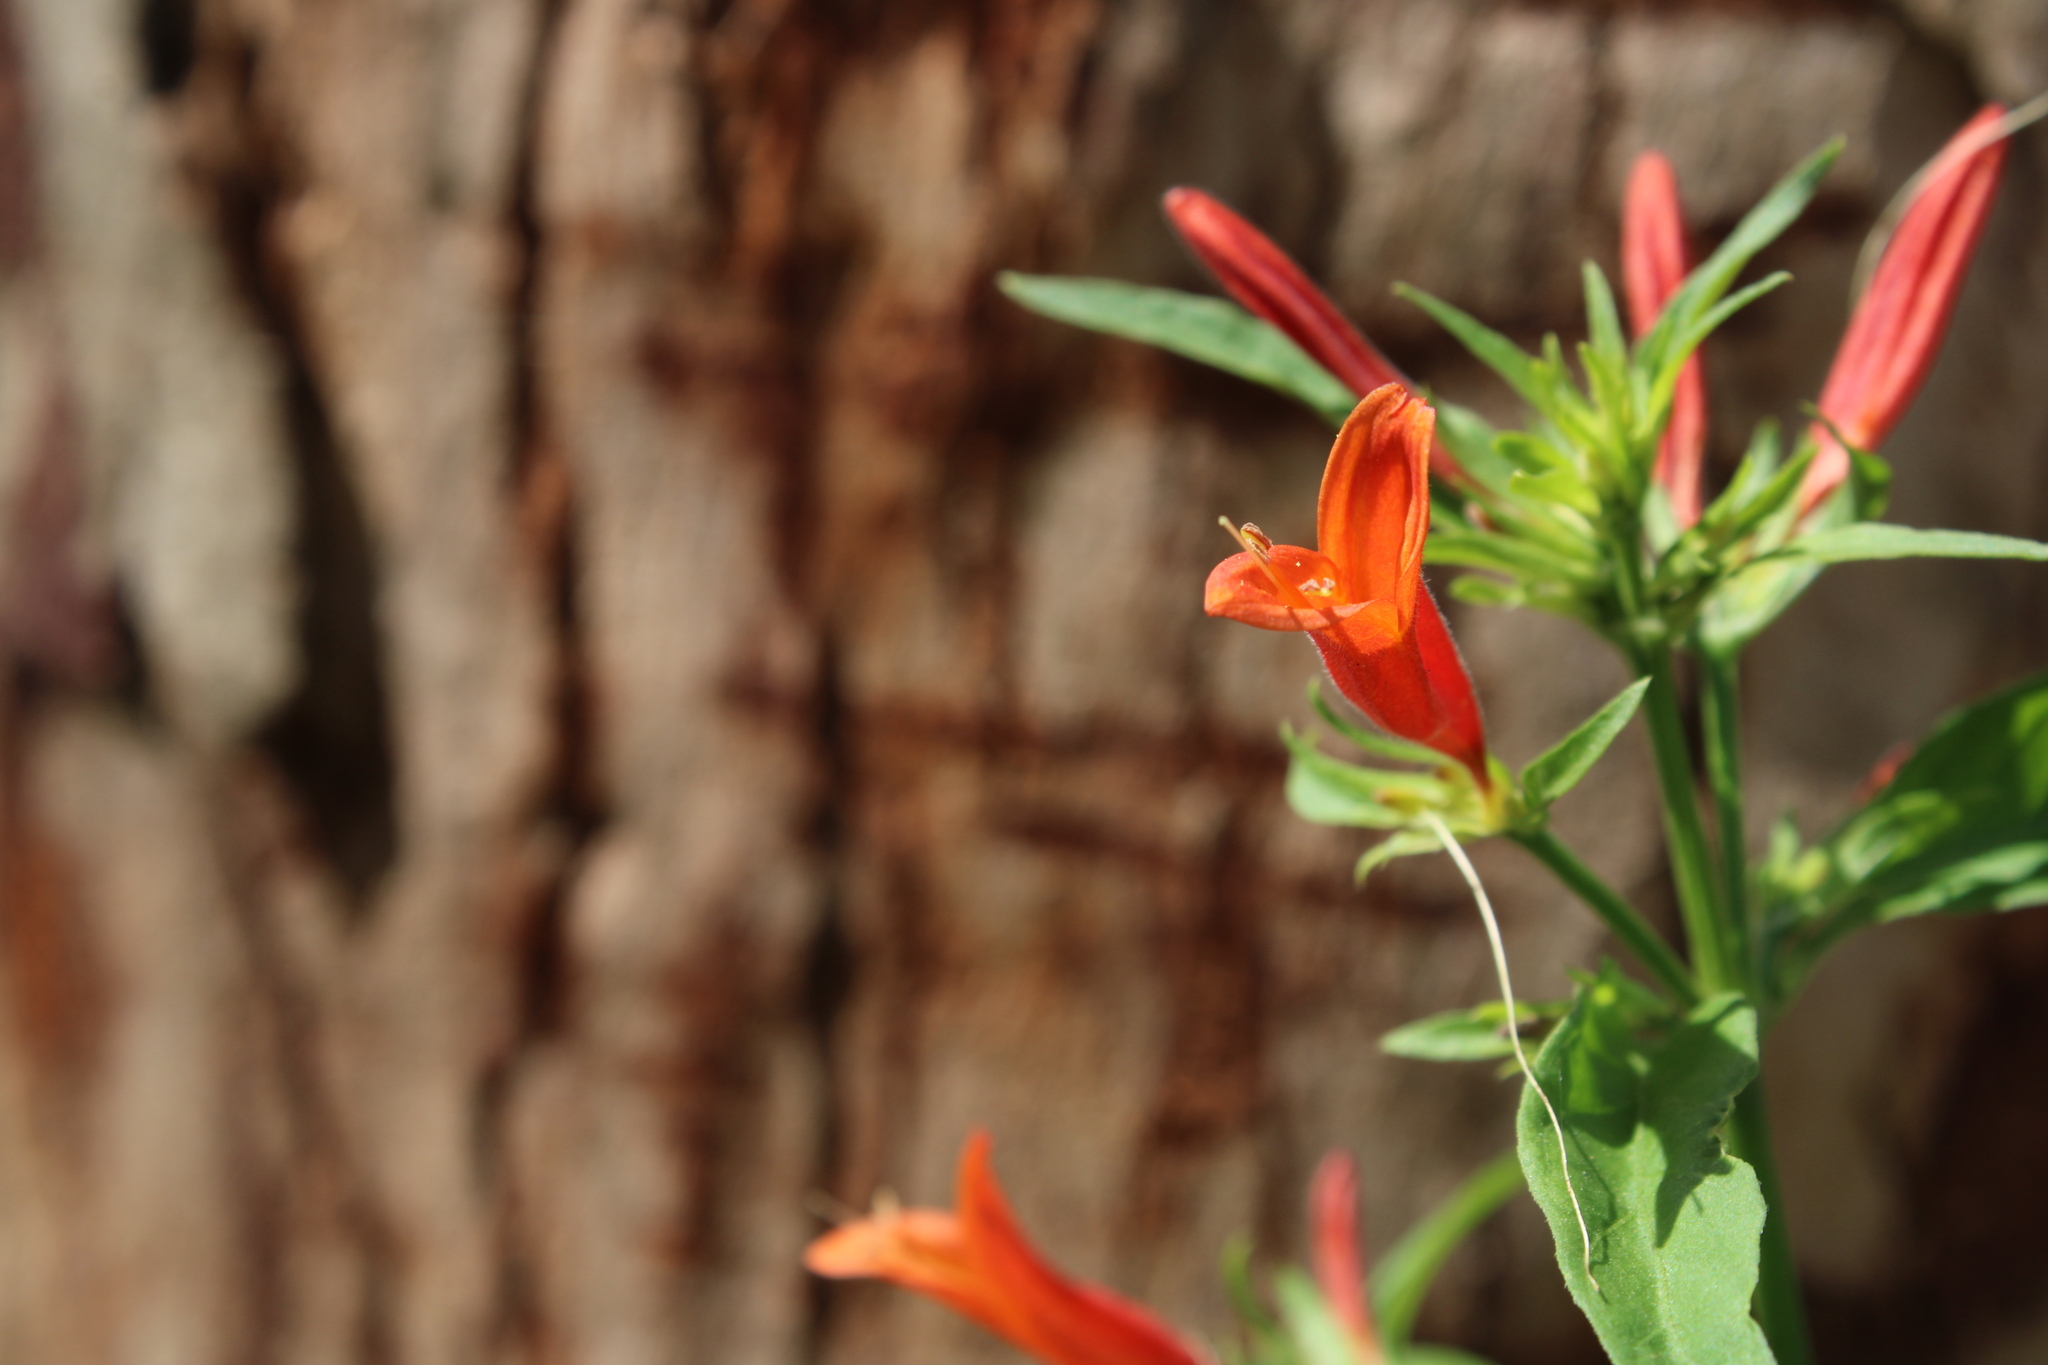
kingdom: Plantae
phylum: Tracheophyta
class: Magnoliopsida
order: Lamiales
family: Acanthaceae
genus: Dicliptera
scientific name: Dicliptera squarrosa
